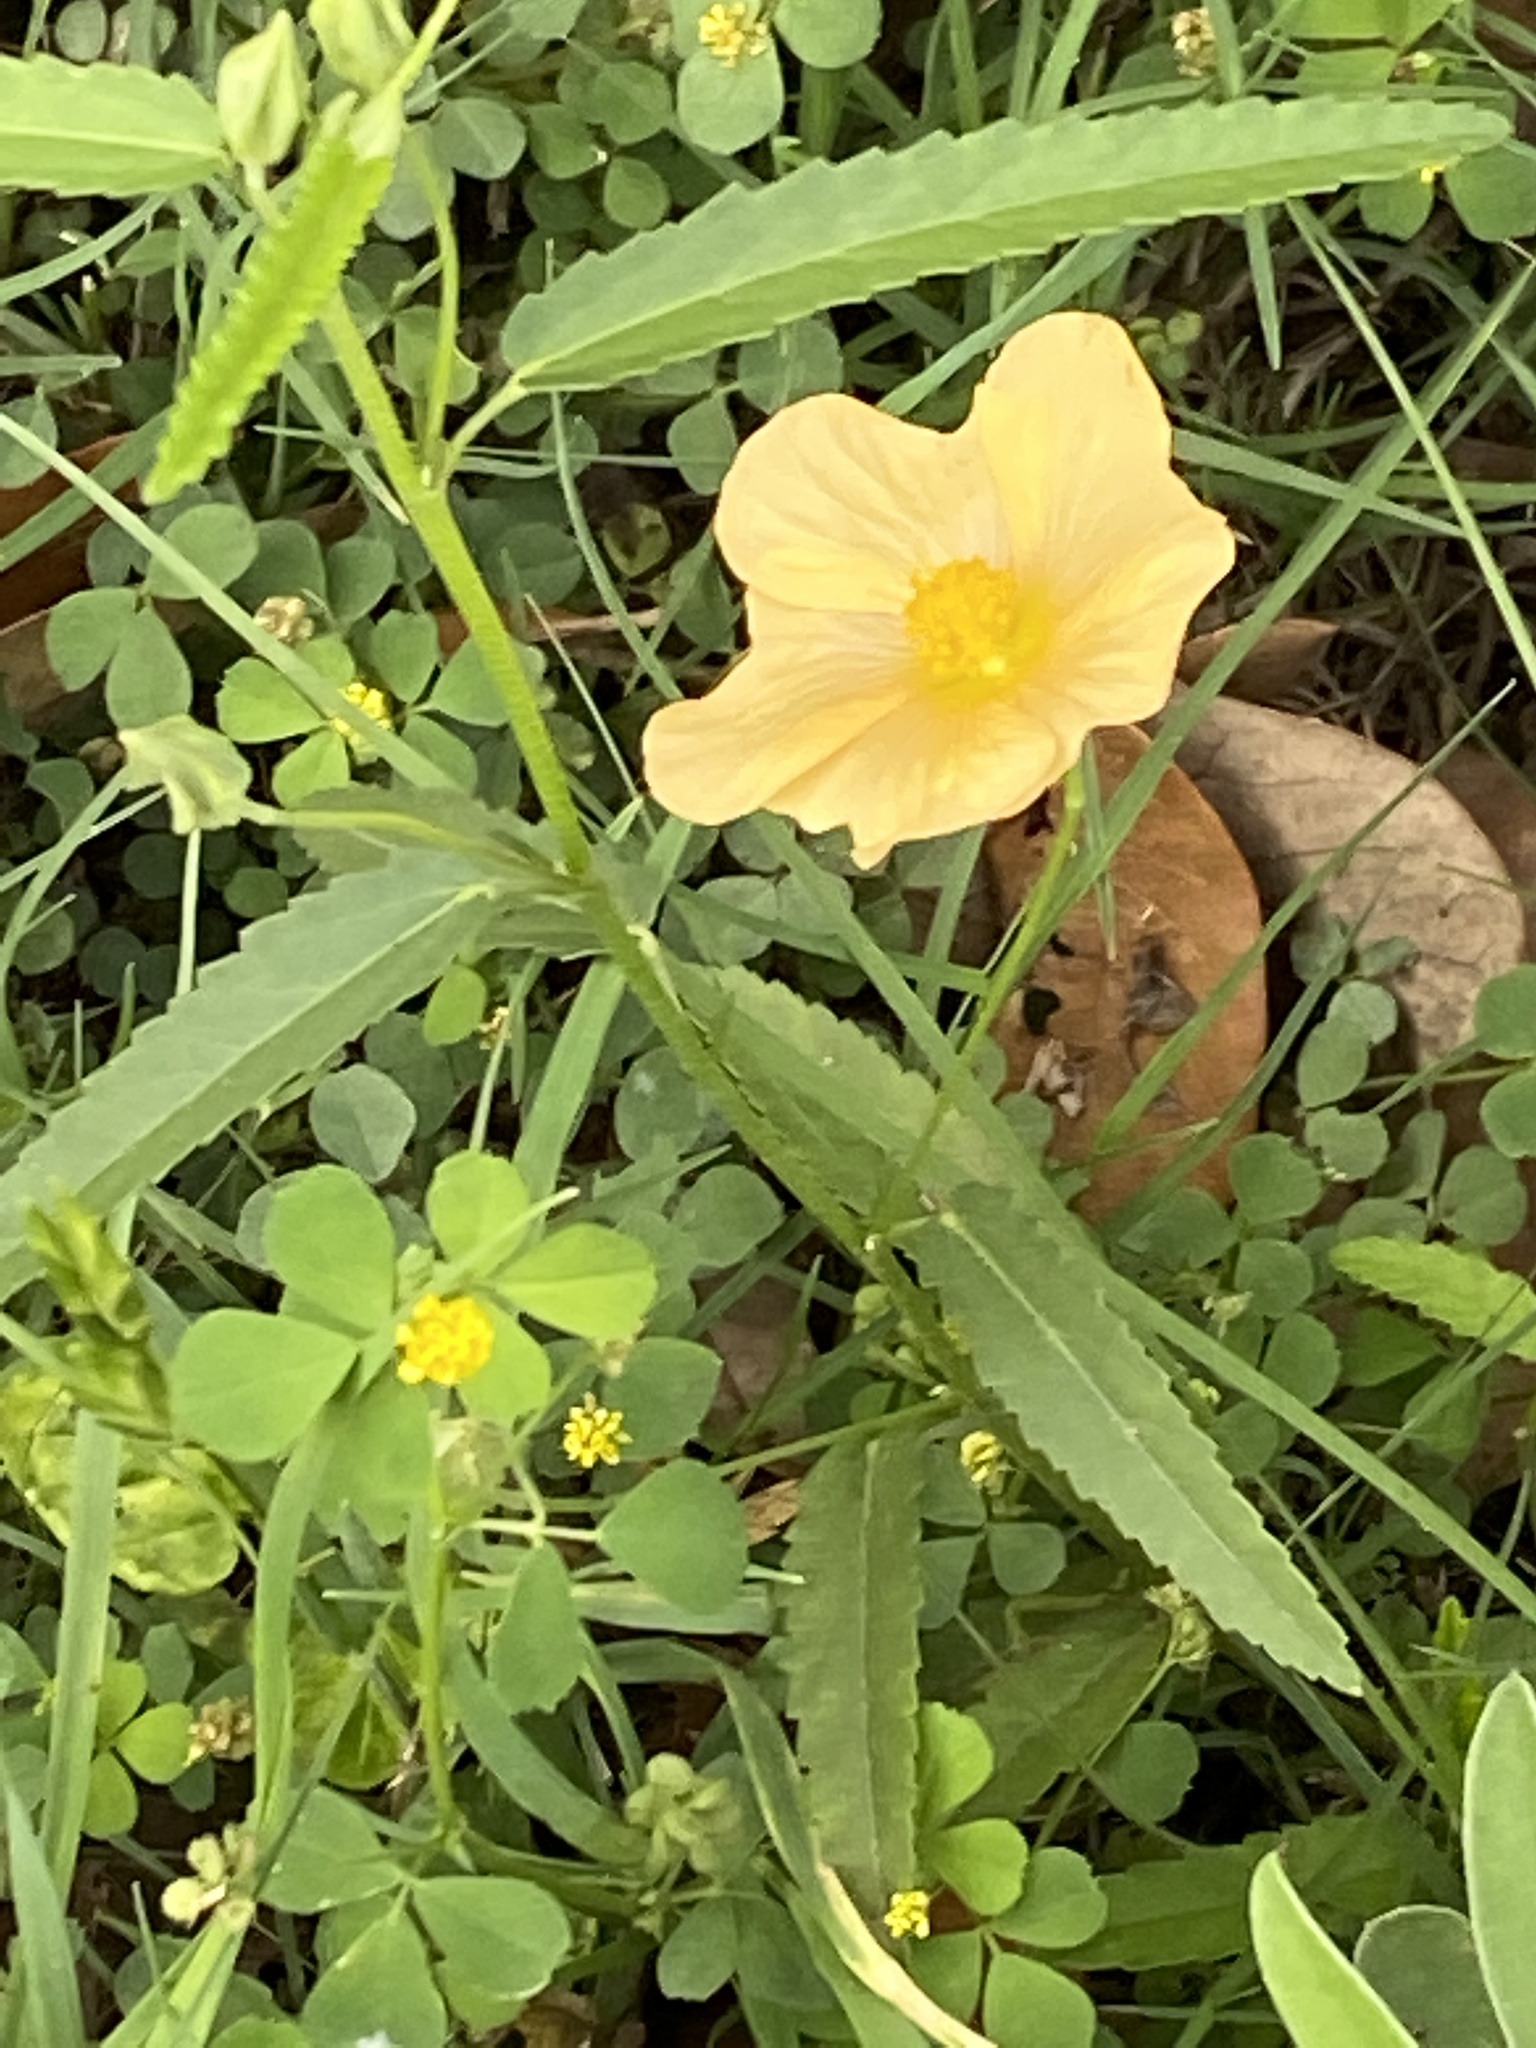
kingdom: Plantae
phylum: Tracheophyta
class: Magnoliopsida
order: Malvales
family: Malvaceae
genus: Sida
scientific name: Sida abutilifolia
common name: Spreading fanpetals
